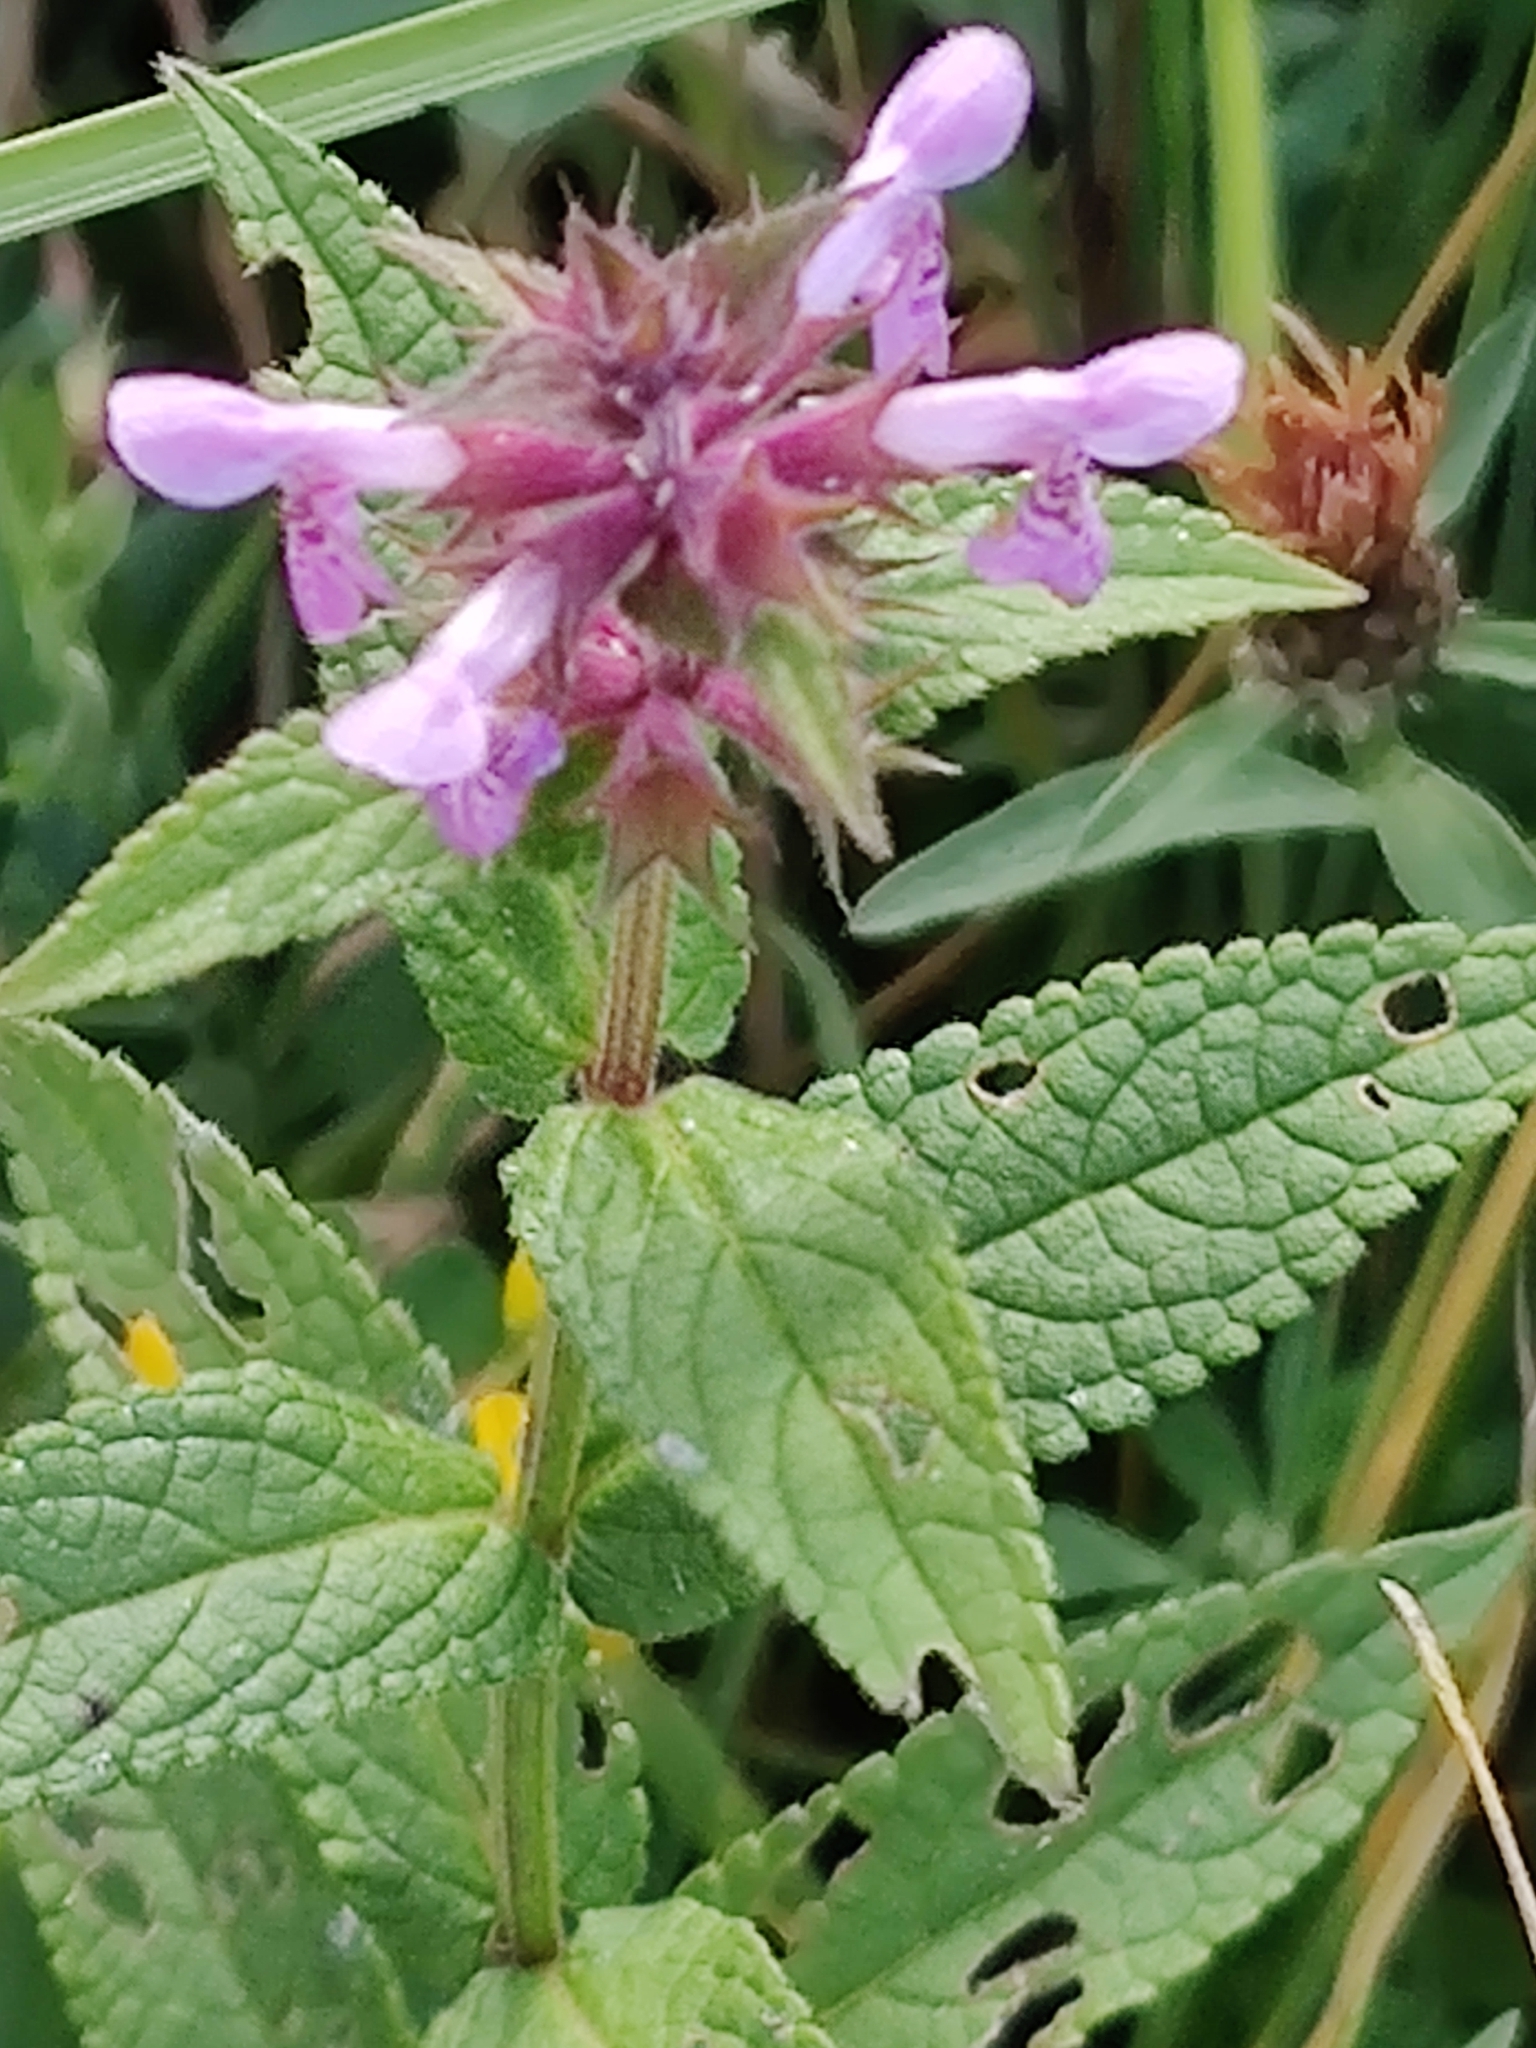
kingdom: Plantae
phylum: Tracheophyta
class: Magnoliopsida
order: Lamiales
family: Lamiaceae
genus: Stachys
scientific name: Stachys palustris
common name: Marsh woundwort
